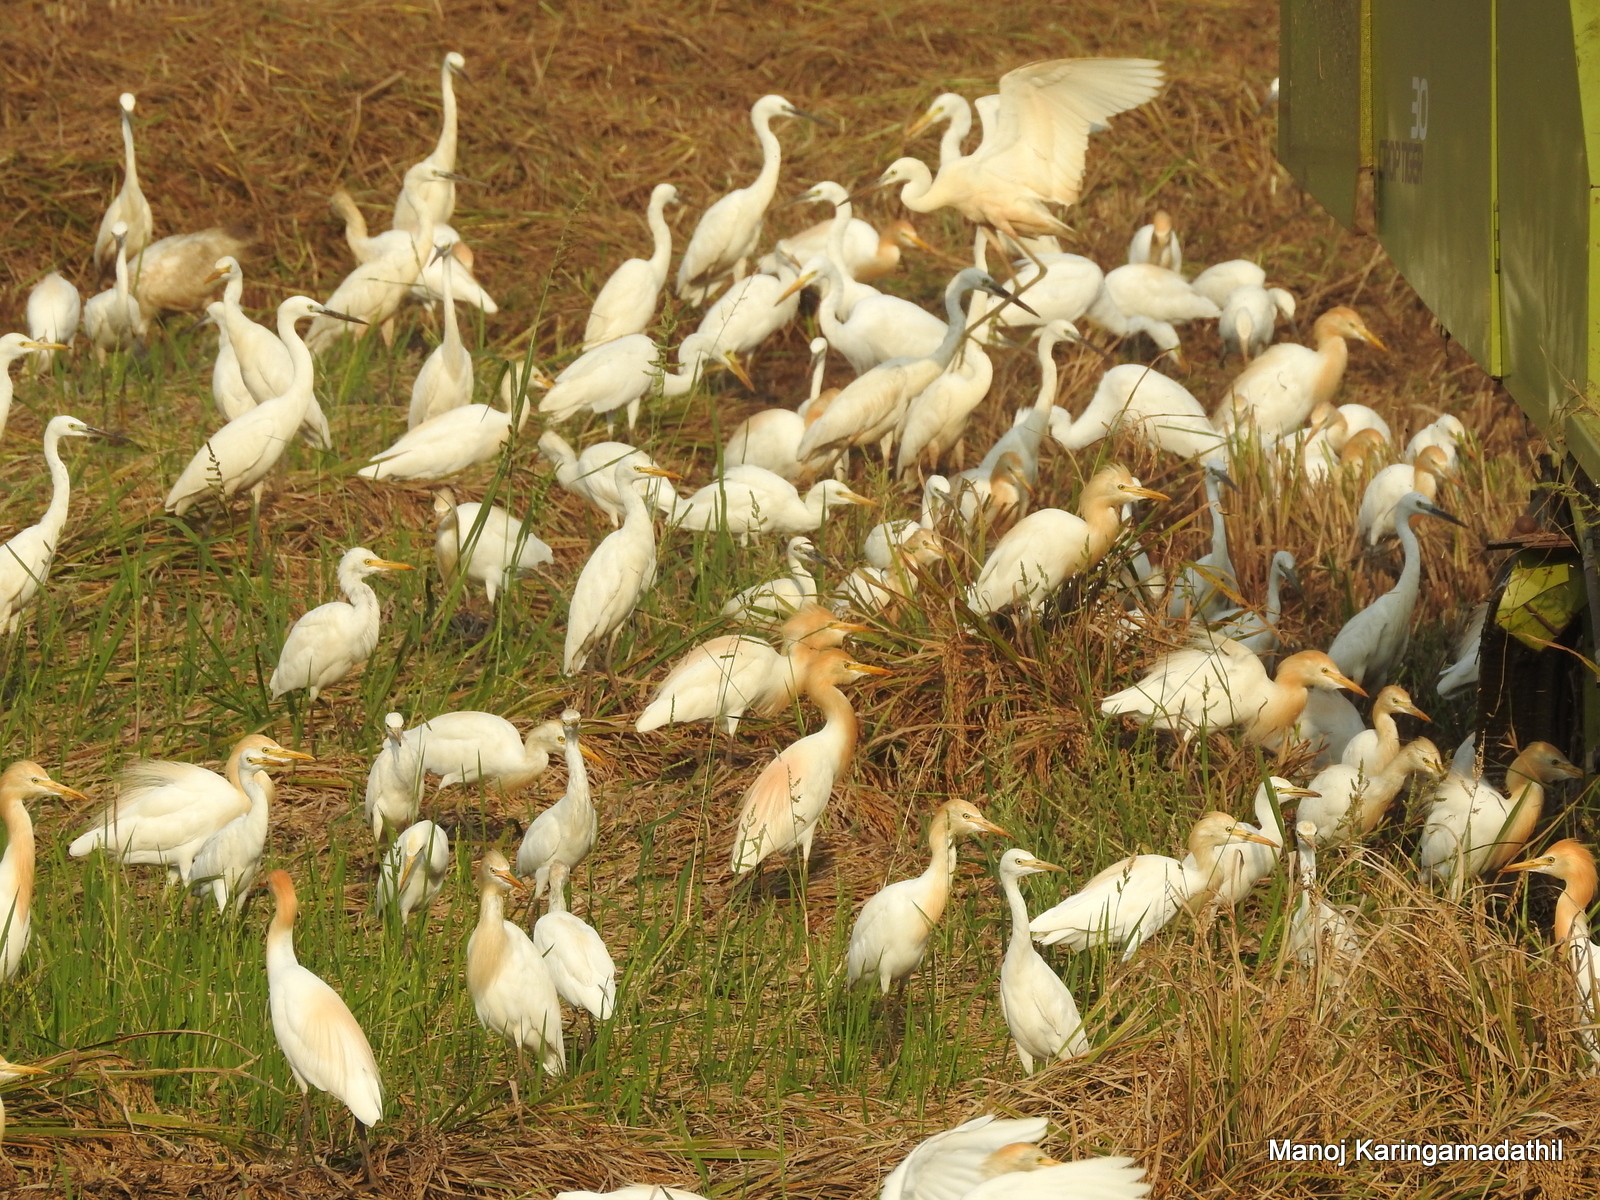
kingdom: Animalia
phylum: Chordata
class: Aves
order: Pelecaniformes
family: Ardeidae
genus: Bubulcus
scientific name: Bubulcus coromandus
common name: Eastern cattle egret
